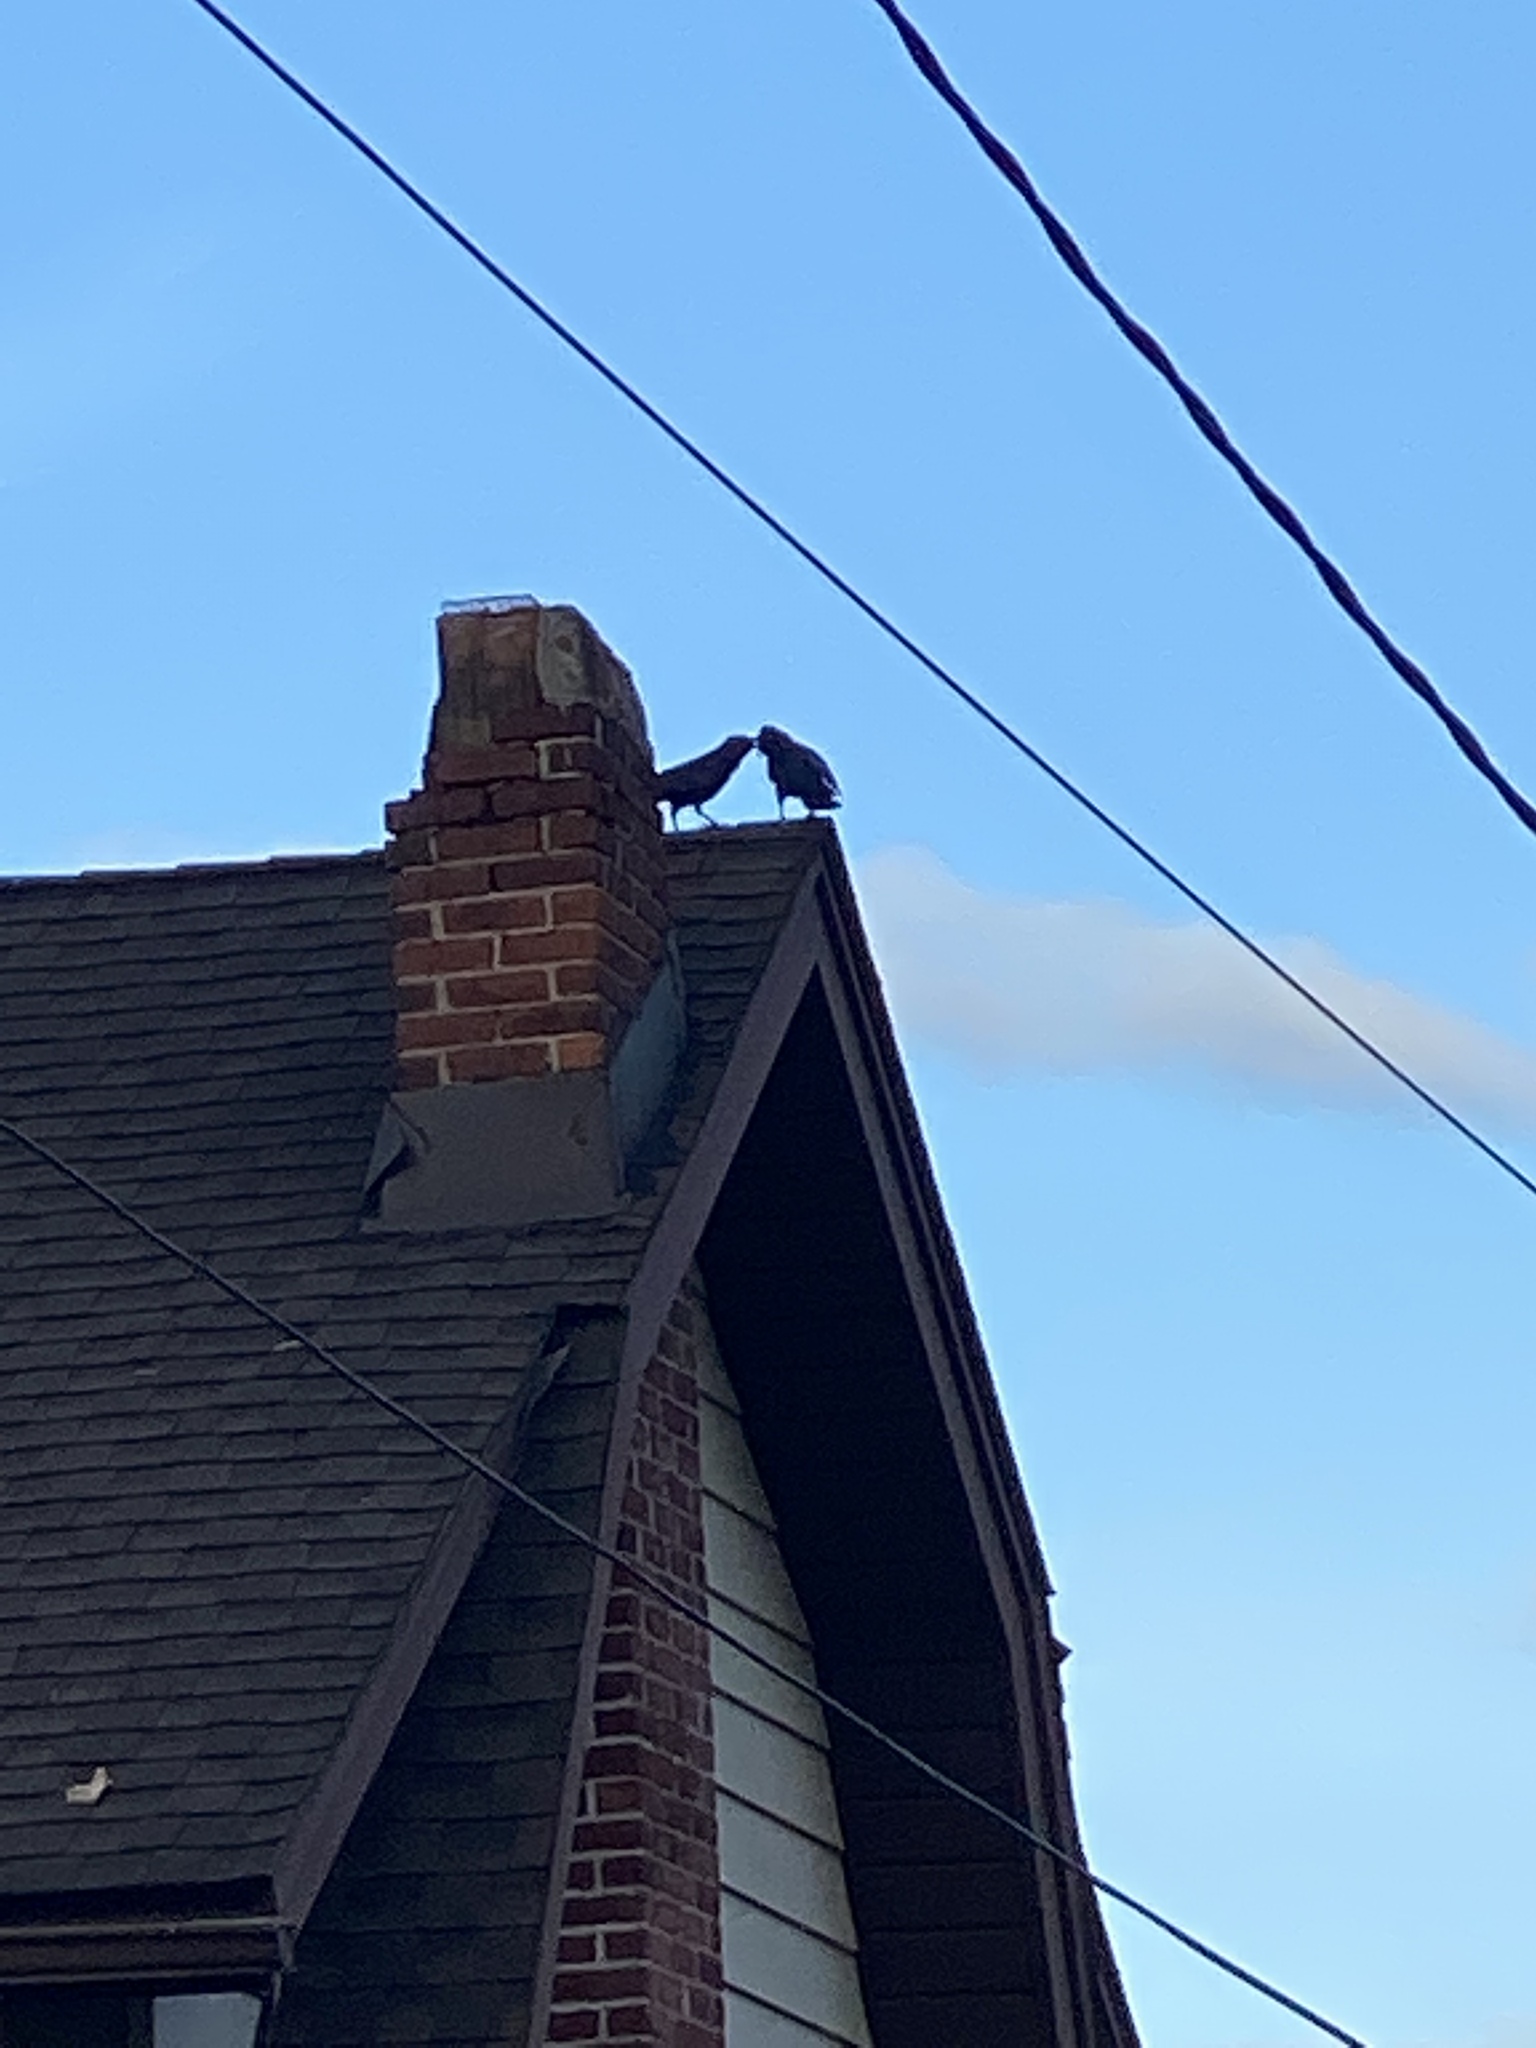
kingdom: Animalia
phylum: Chordata
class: Aves
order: Passeriformes
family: Corvidae
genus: Corvus
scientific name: Corvus ossifragus
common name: Fish crow
